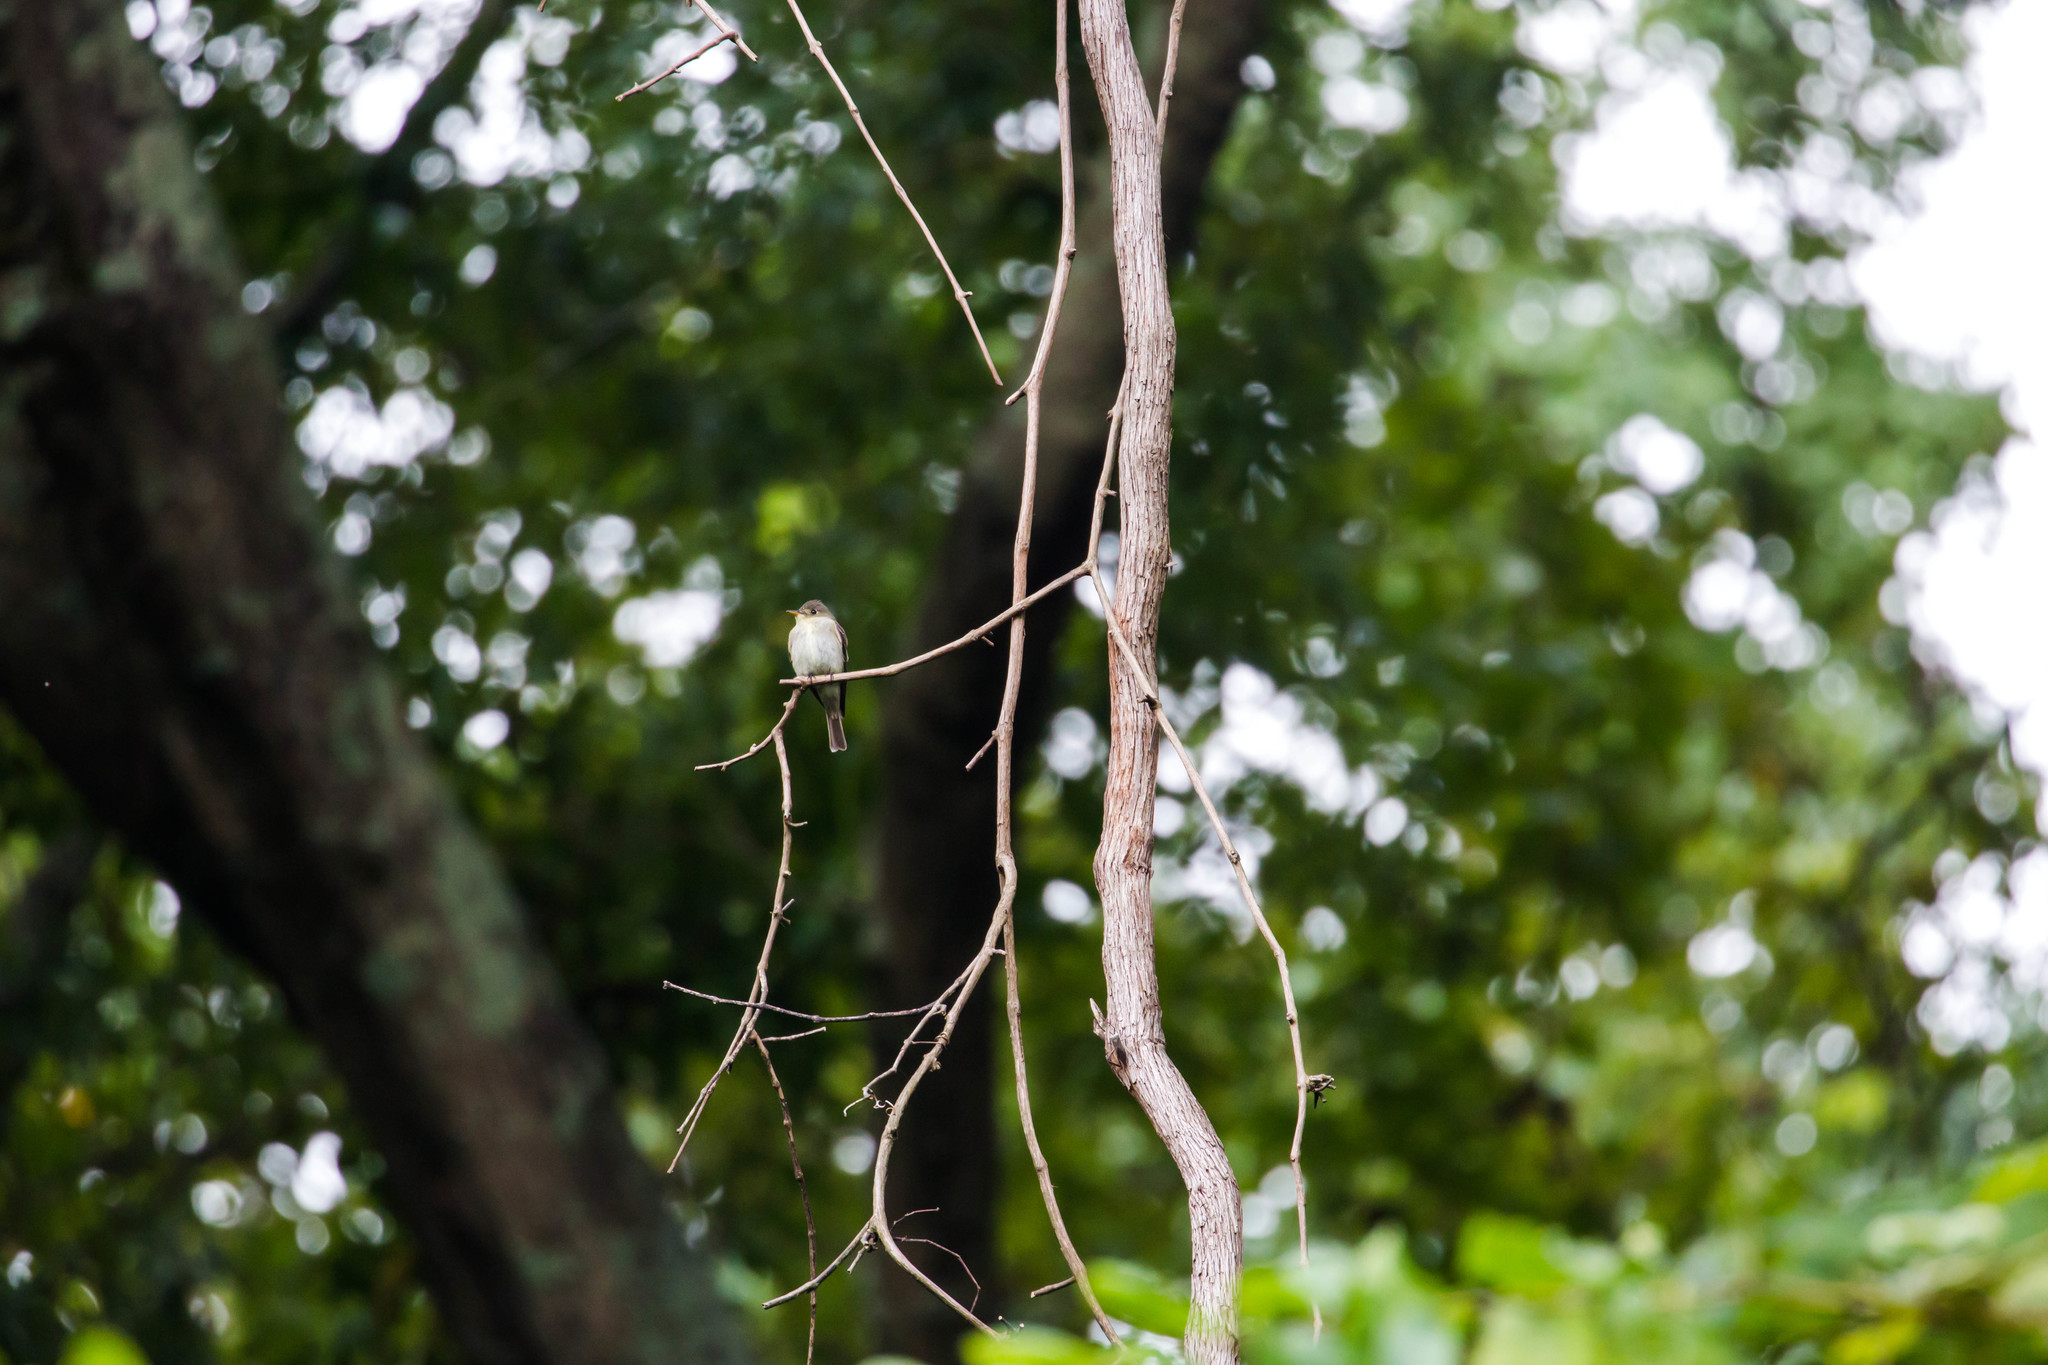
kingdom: Animalia
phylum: Chordata
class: Aves
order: Passeriformes
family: Tyrannidae
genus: Contopus
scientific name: Contopus virens
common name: Eastern wood-pewee
